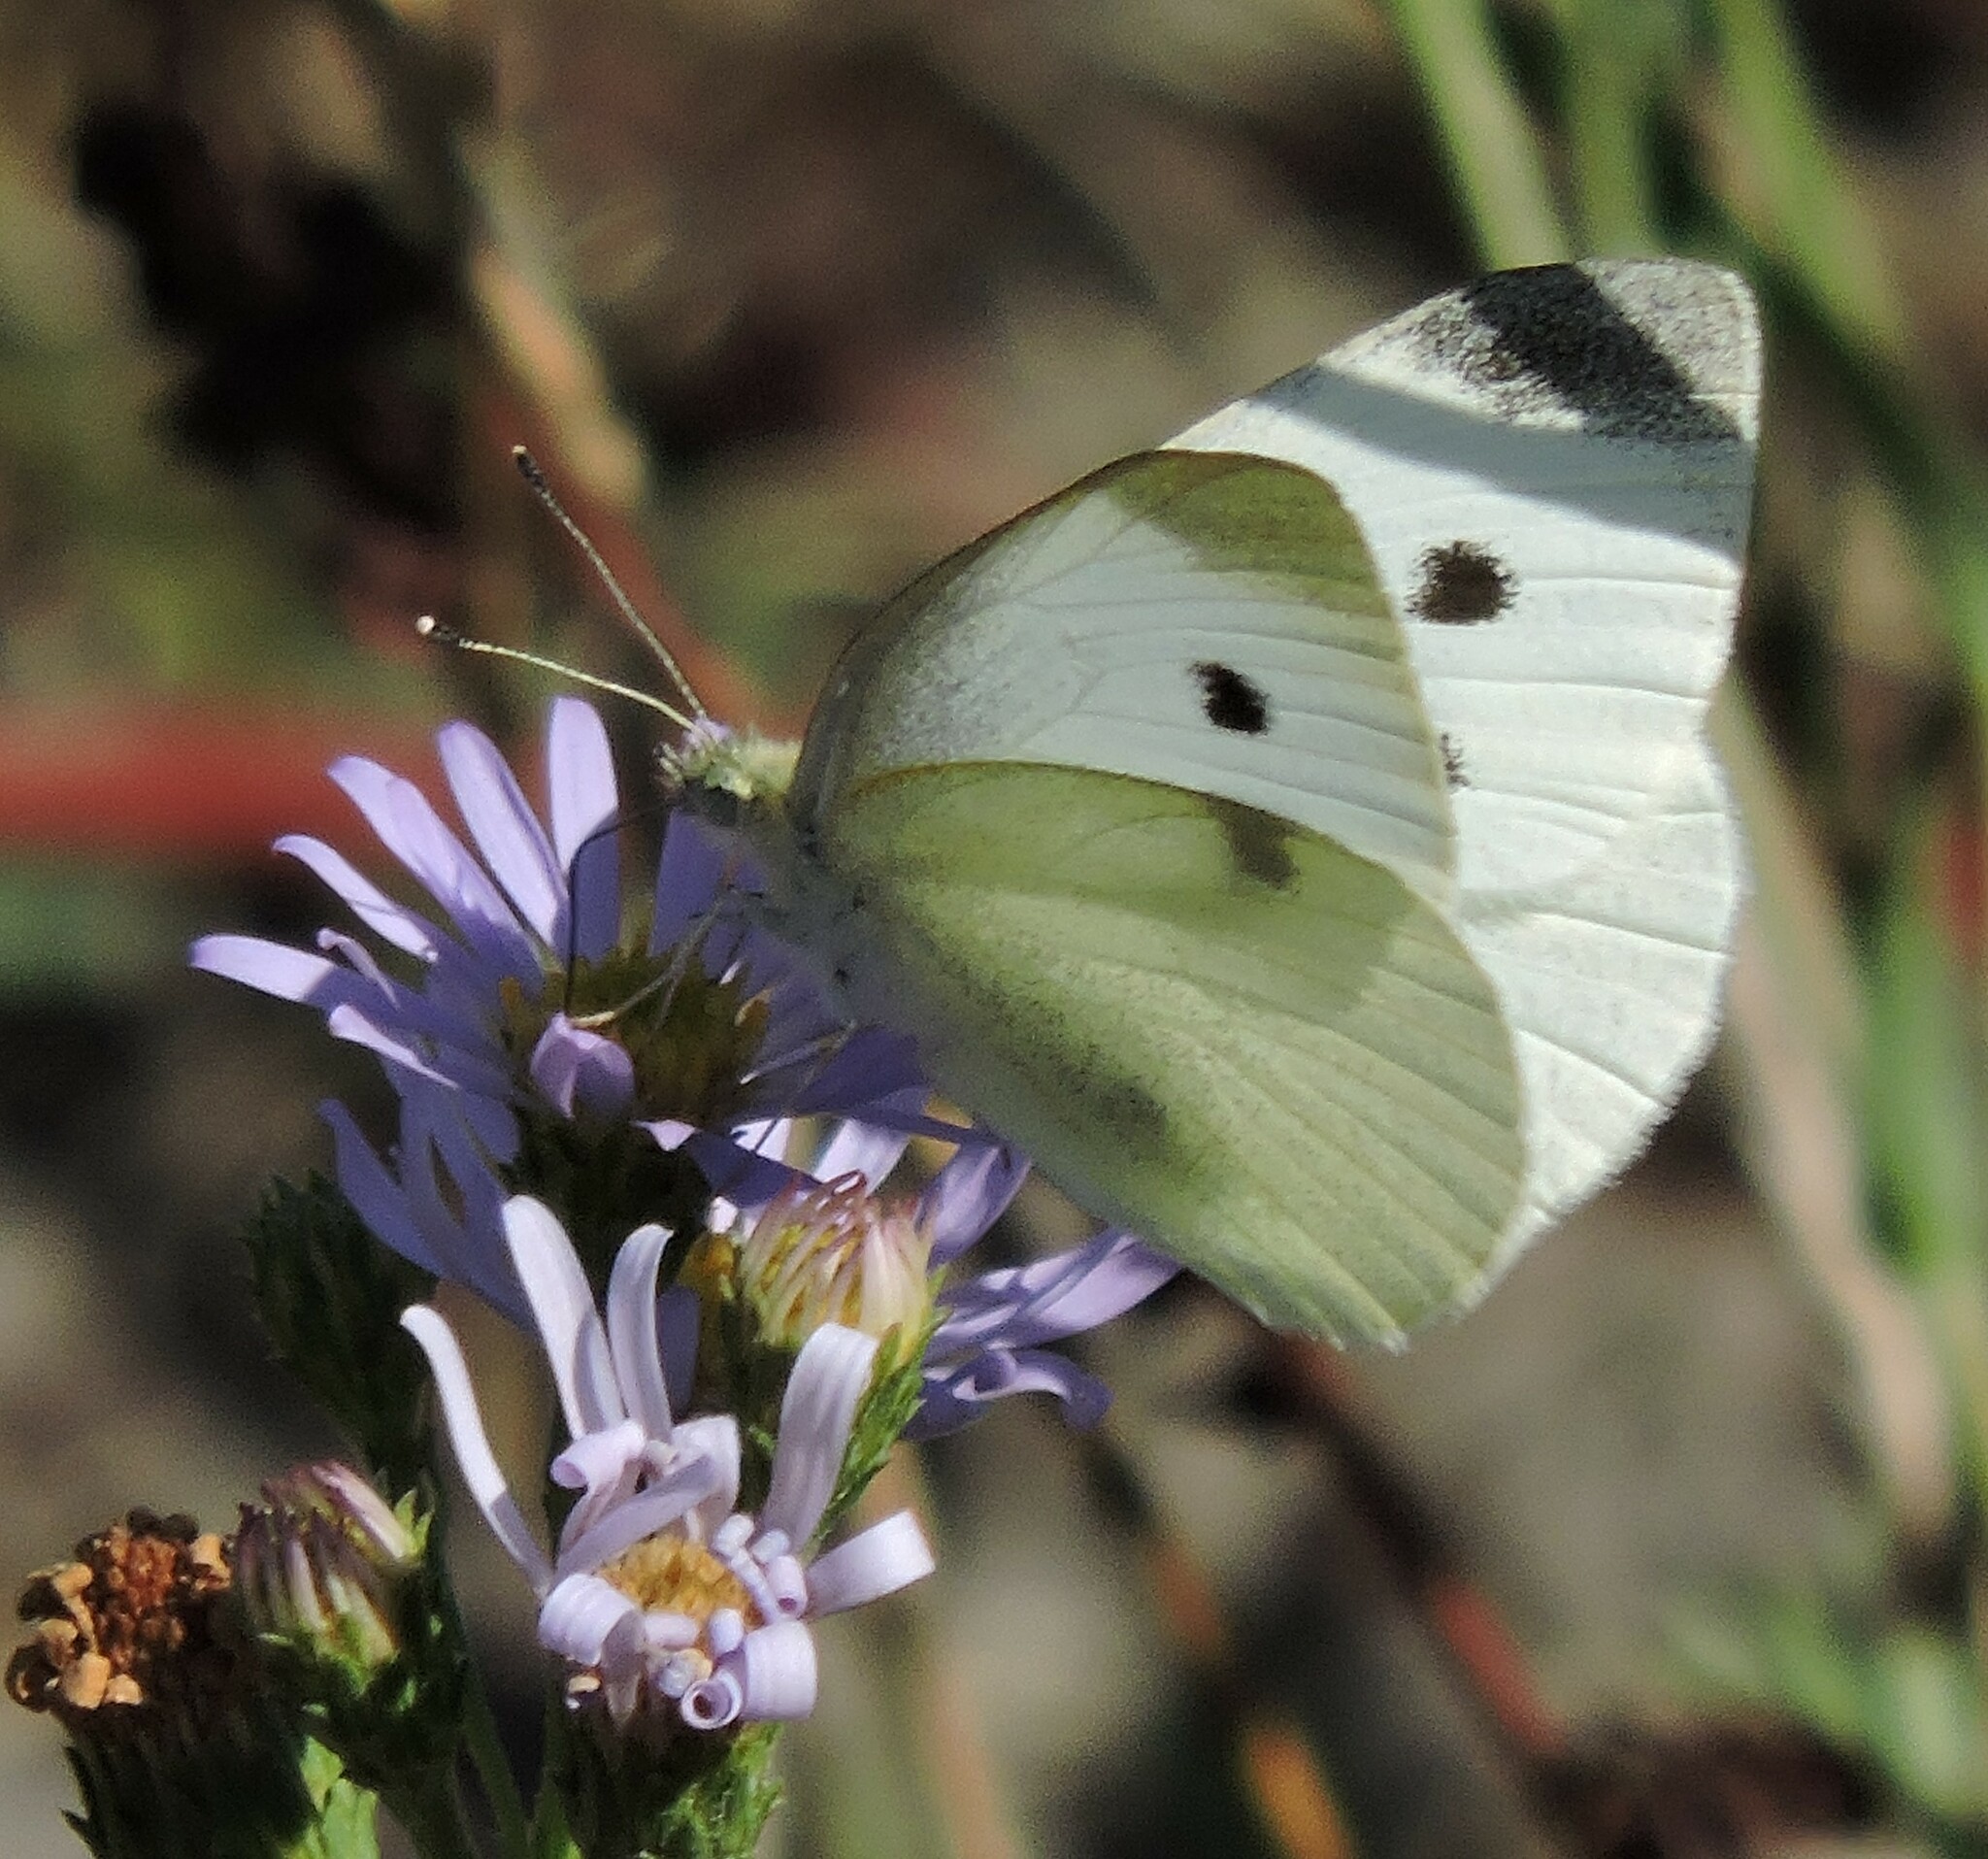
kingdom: Animalia
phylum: Arthropoda
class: Insecta
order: Lepidoptera
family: Pieridae
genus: Pieris
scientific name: Pieris rapae
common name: Small white
